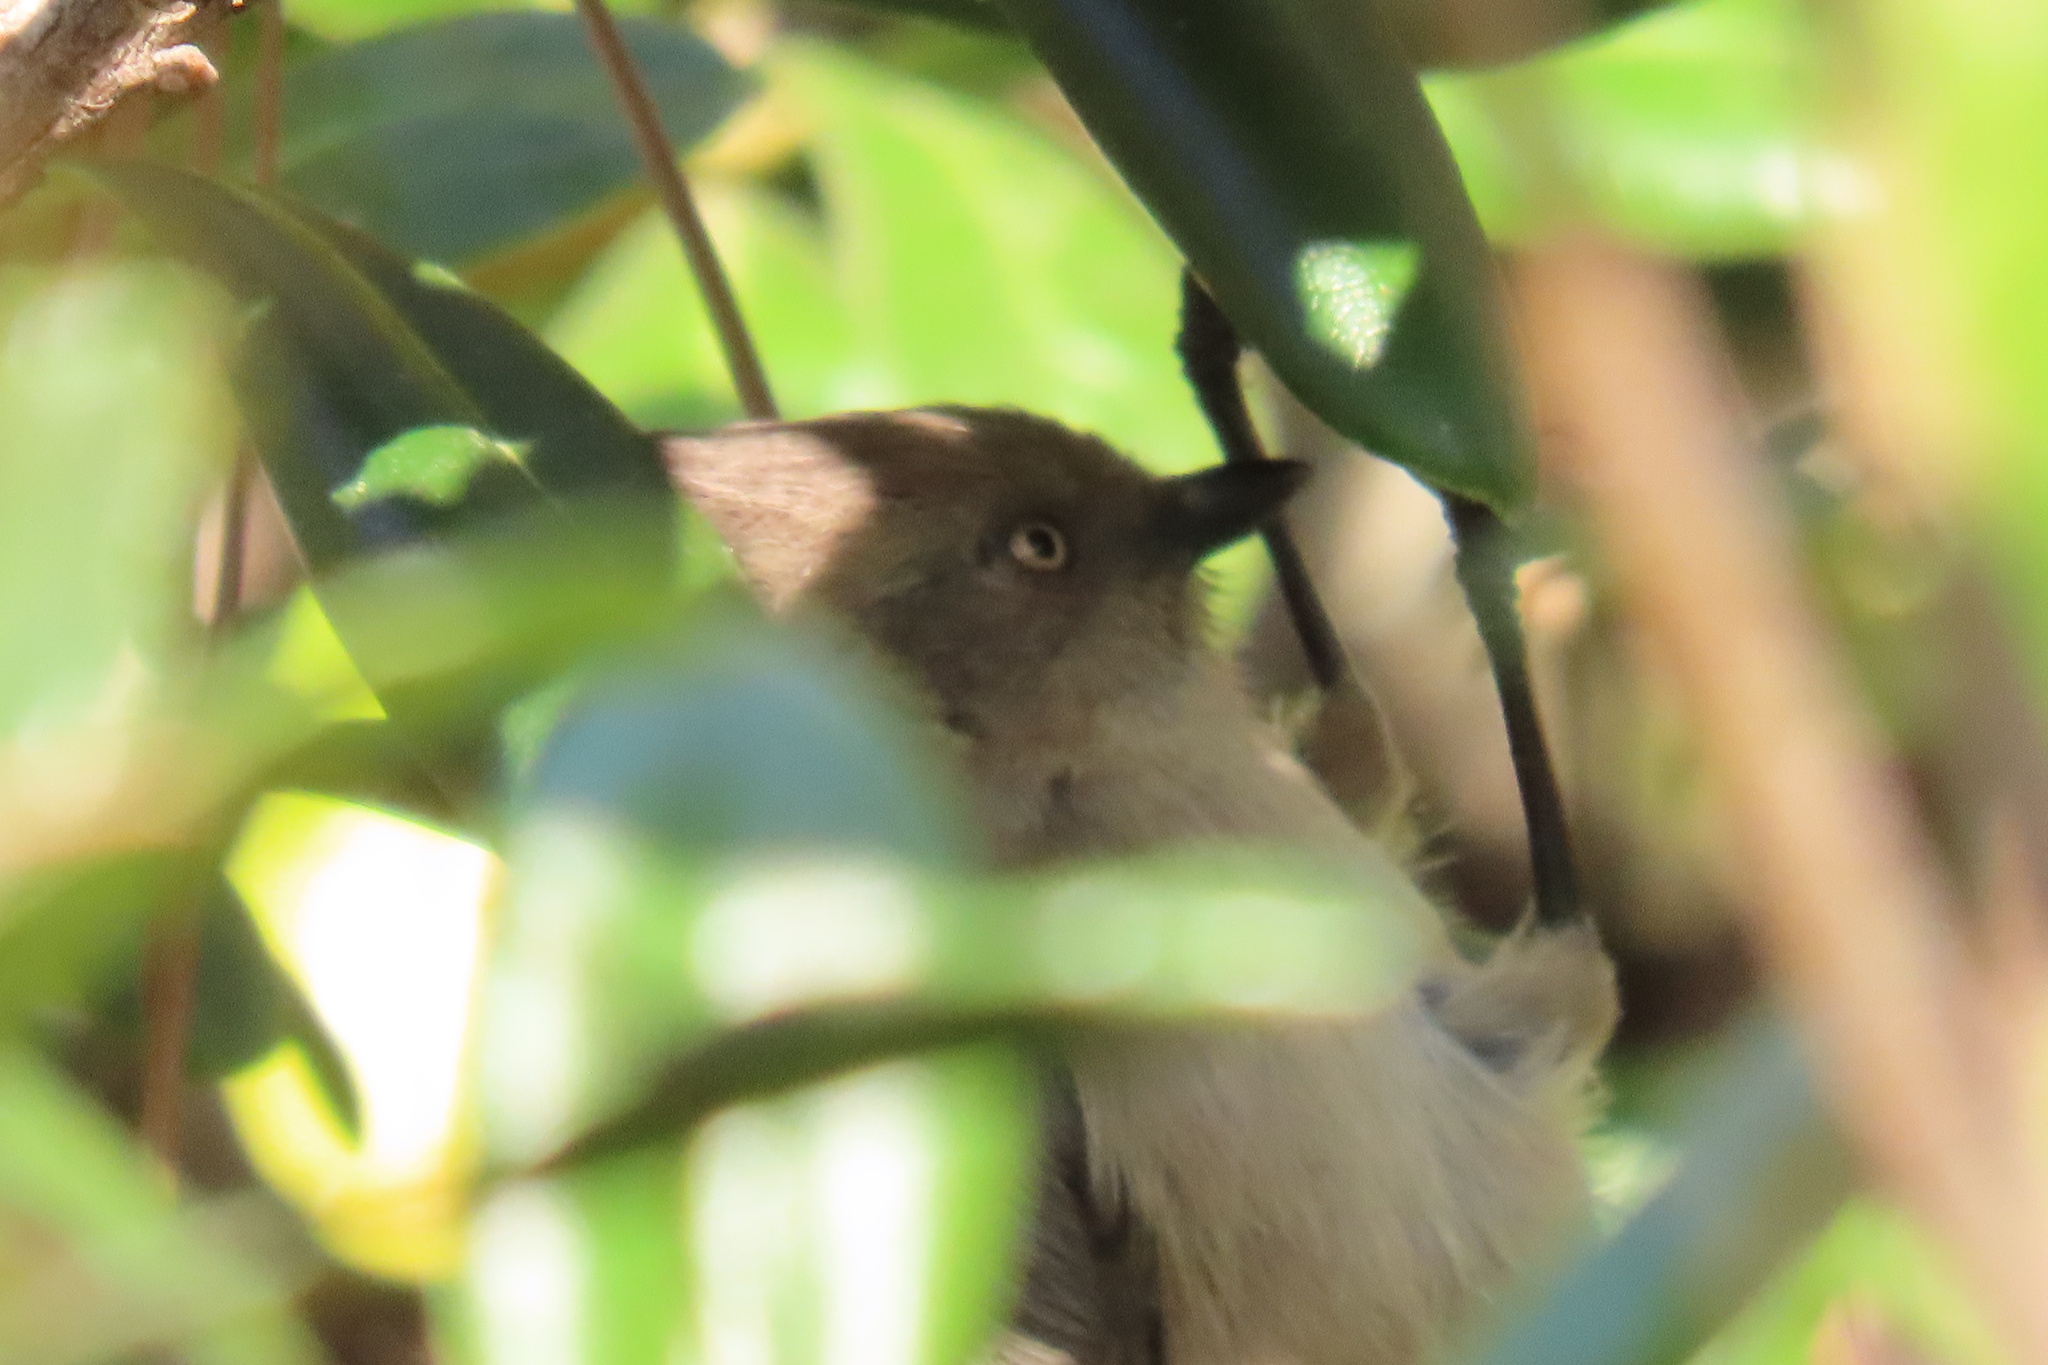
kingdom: Animalia
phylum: Chordata
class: Aves
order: Passeriformes
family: Aegithalidae
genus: Psaltriparus
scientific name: Psaltriparus minimus
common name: American bushtit
